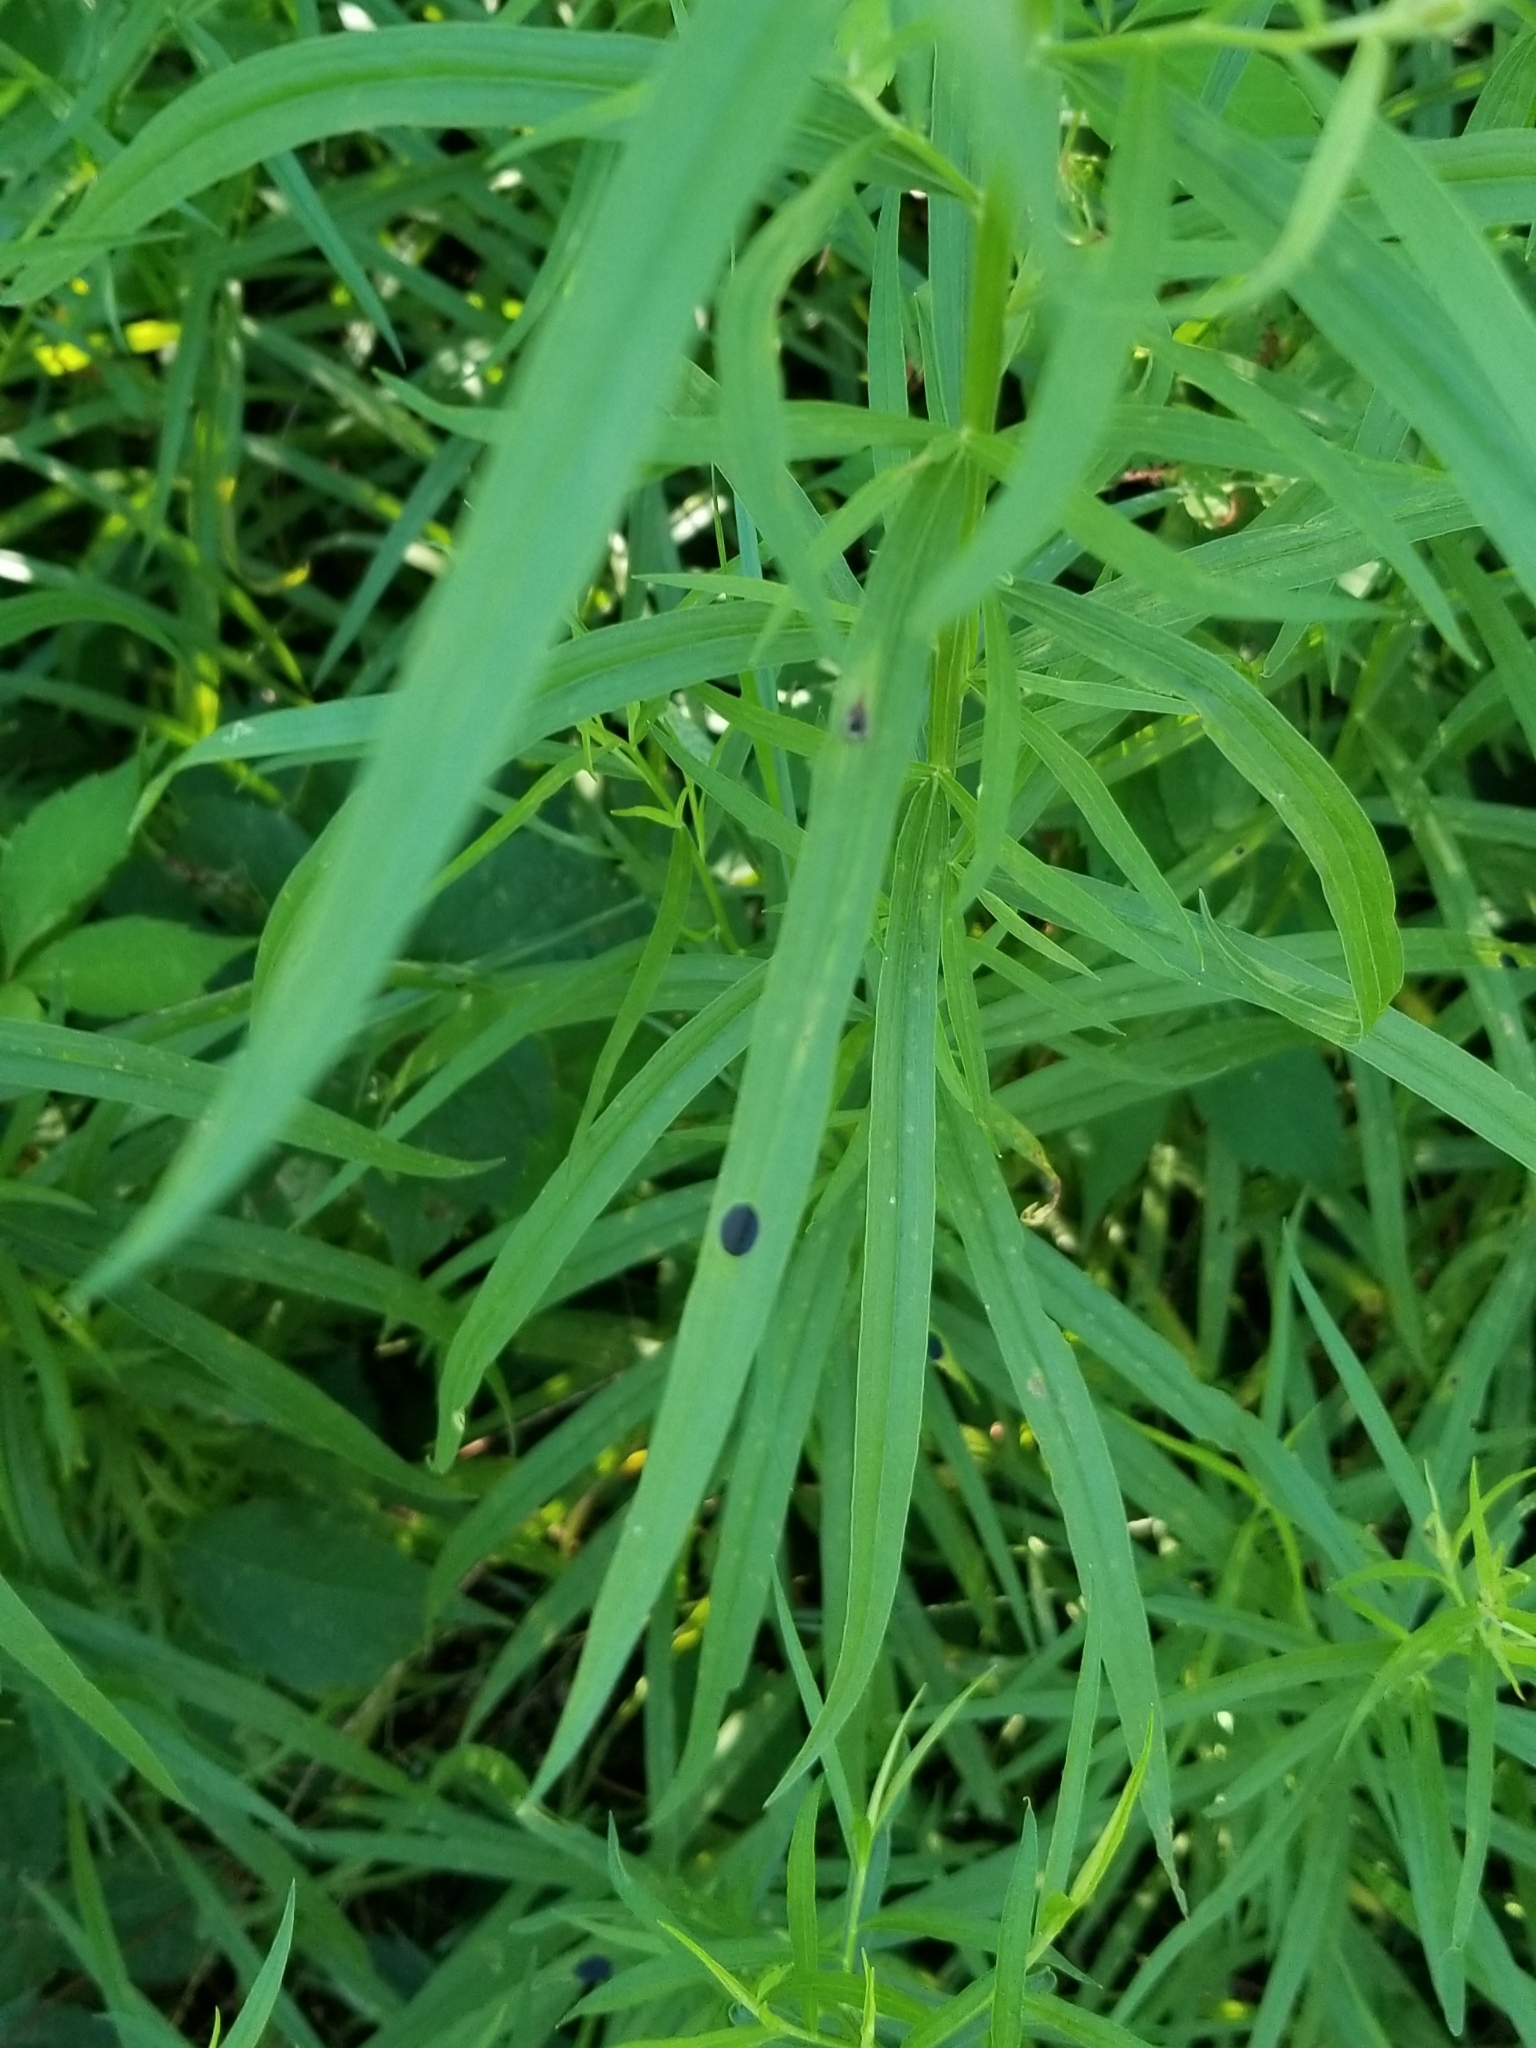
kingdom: Animalia
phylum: Arthropoda
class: Insecta
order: Diptera
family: Cecidomyiidae
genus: Asteromyia
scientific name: Asteromyia euthamiae
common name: Euthamia leaf gall midge
